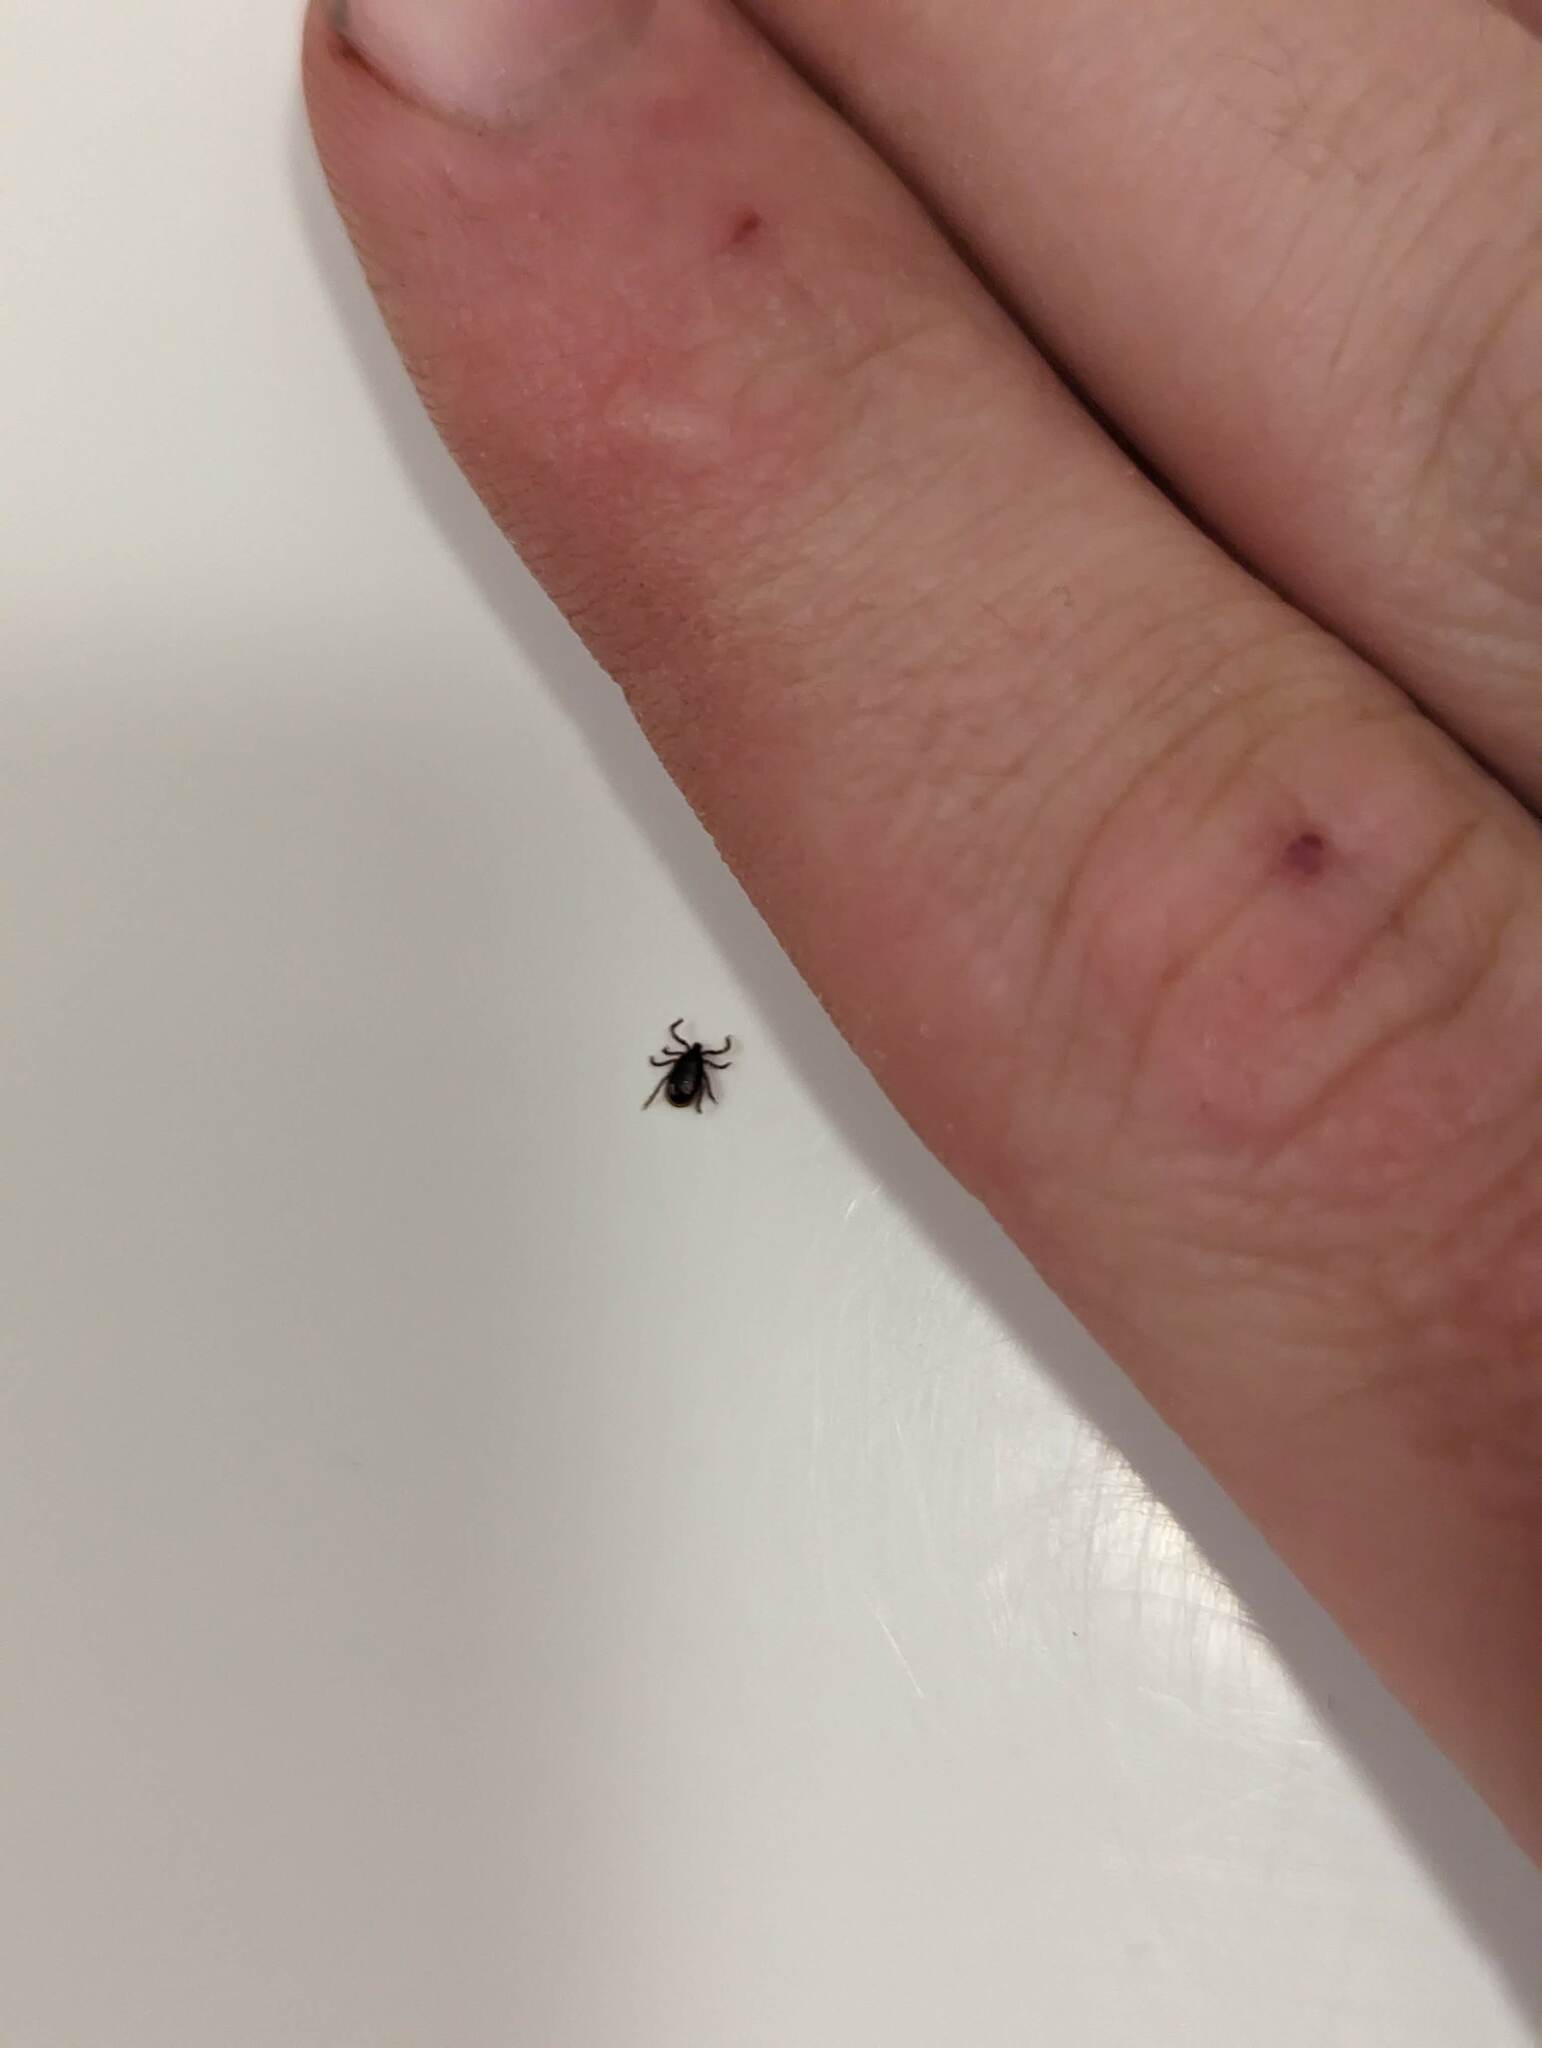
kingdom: Animalia
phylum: Arthropoda
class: Arachnida
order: Ixodida
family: Ixodidae
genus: Ixodes
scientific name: Ixodes scapularis
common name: Black legged tick
